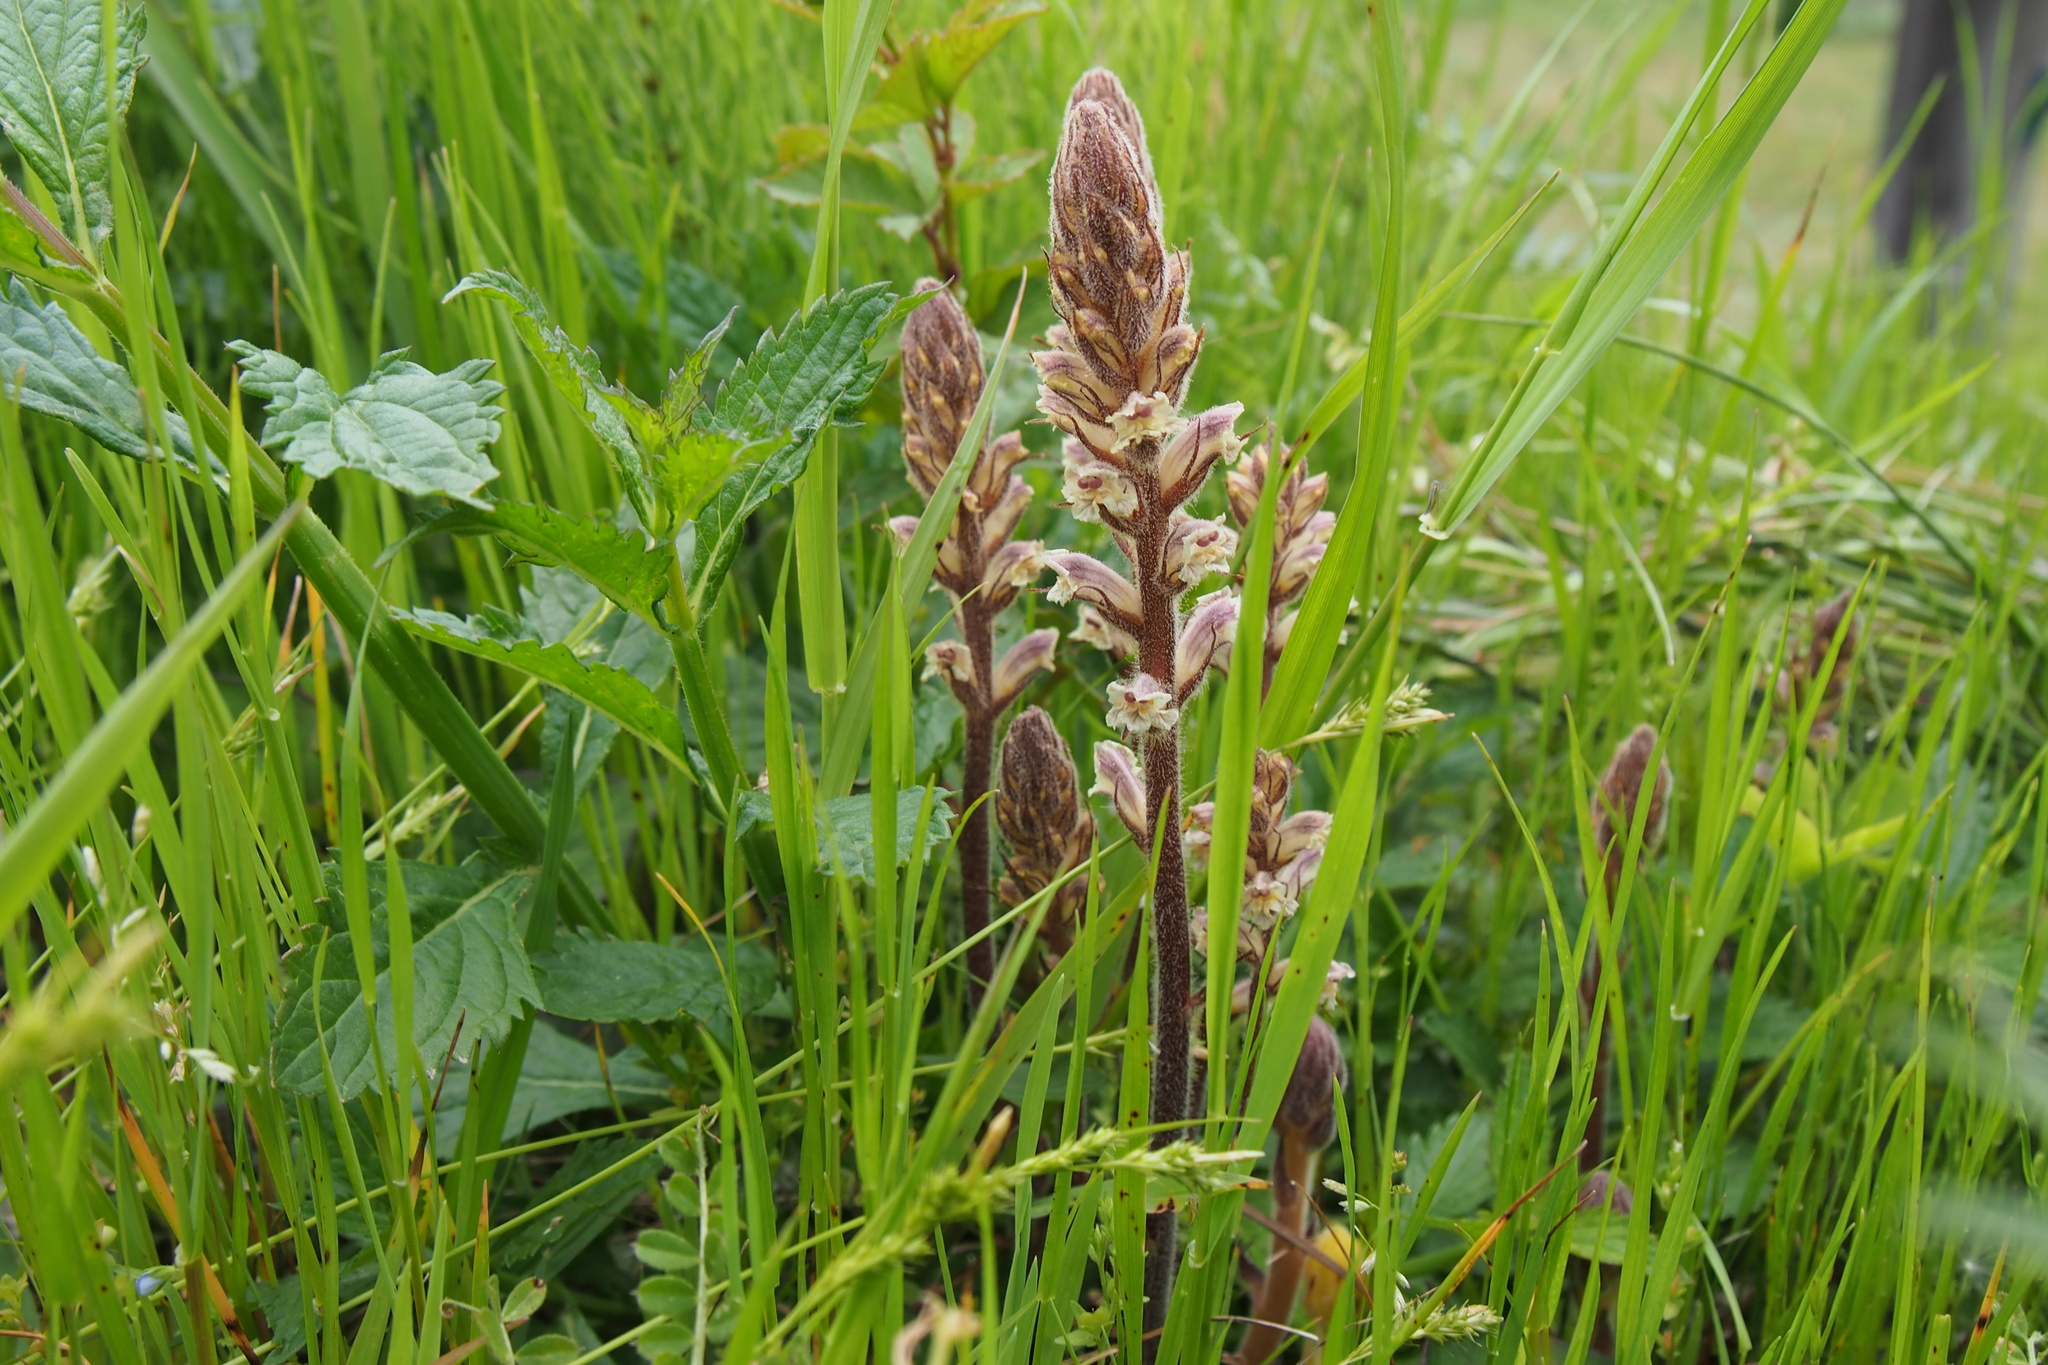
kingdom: Plantae
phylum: Tracheophyta
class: Magnoliopsida
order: Lamiales
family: Orobanchaceae
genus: Orobanche
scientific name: Orobanche minor
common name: Common broomrape
